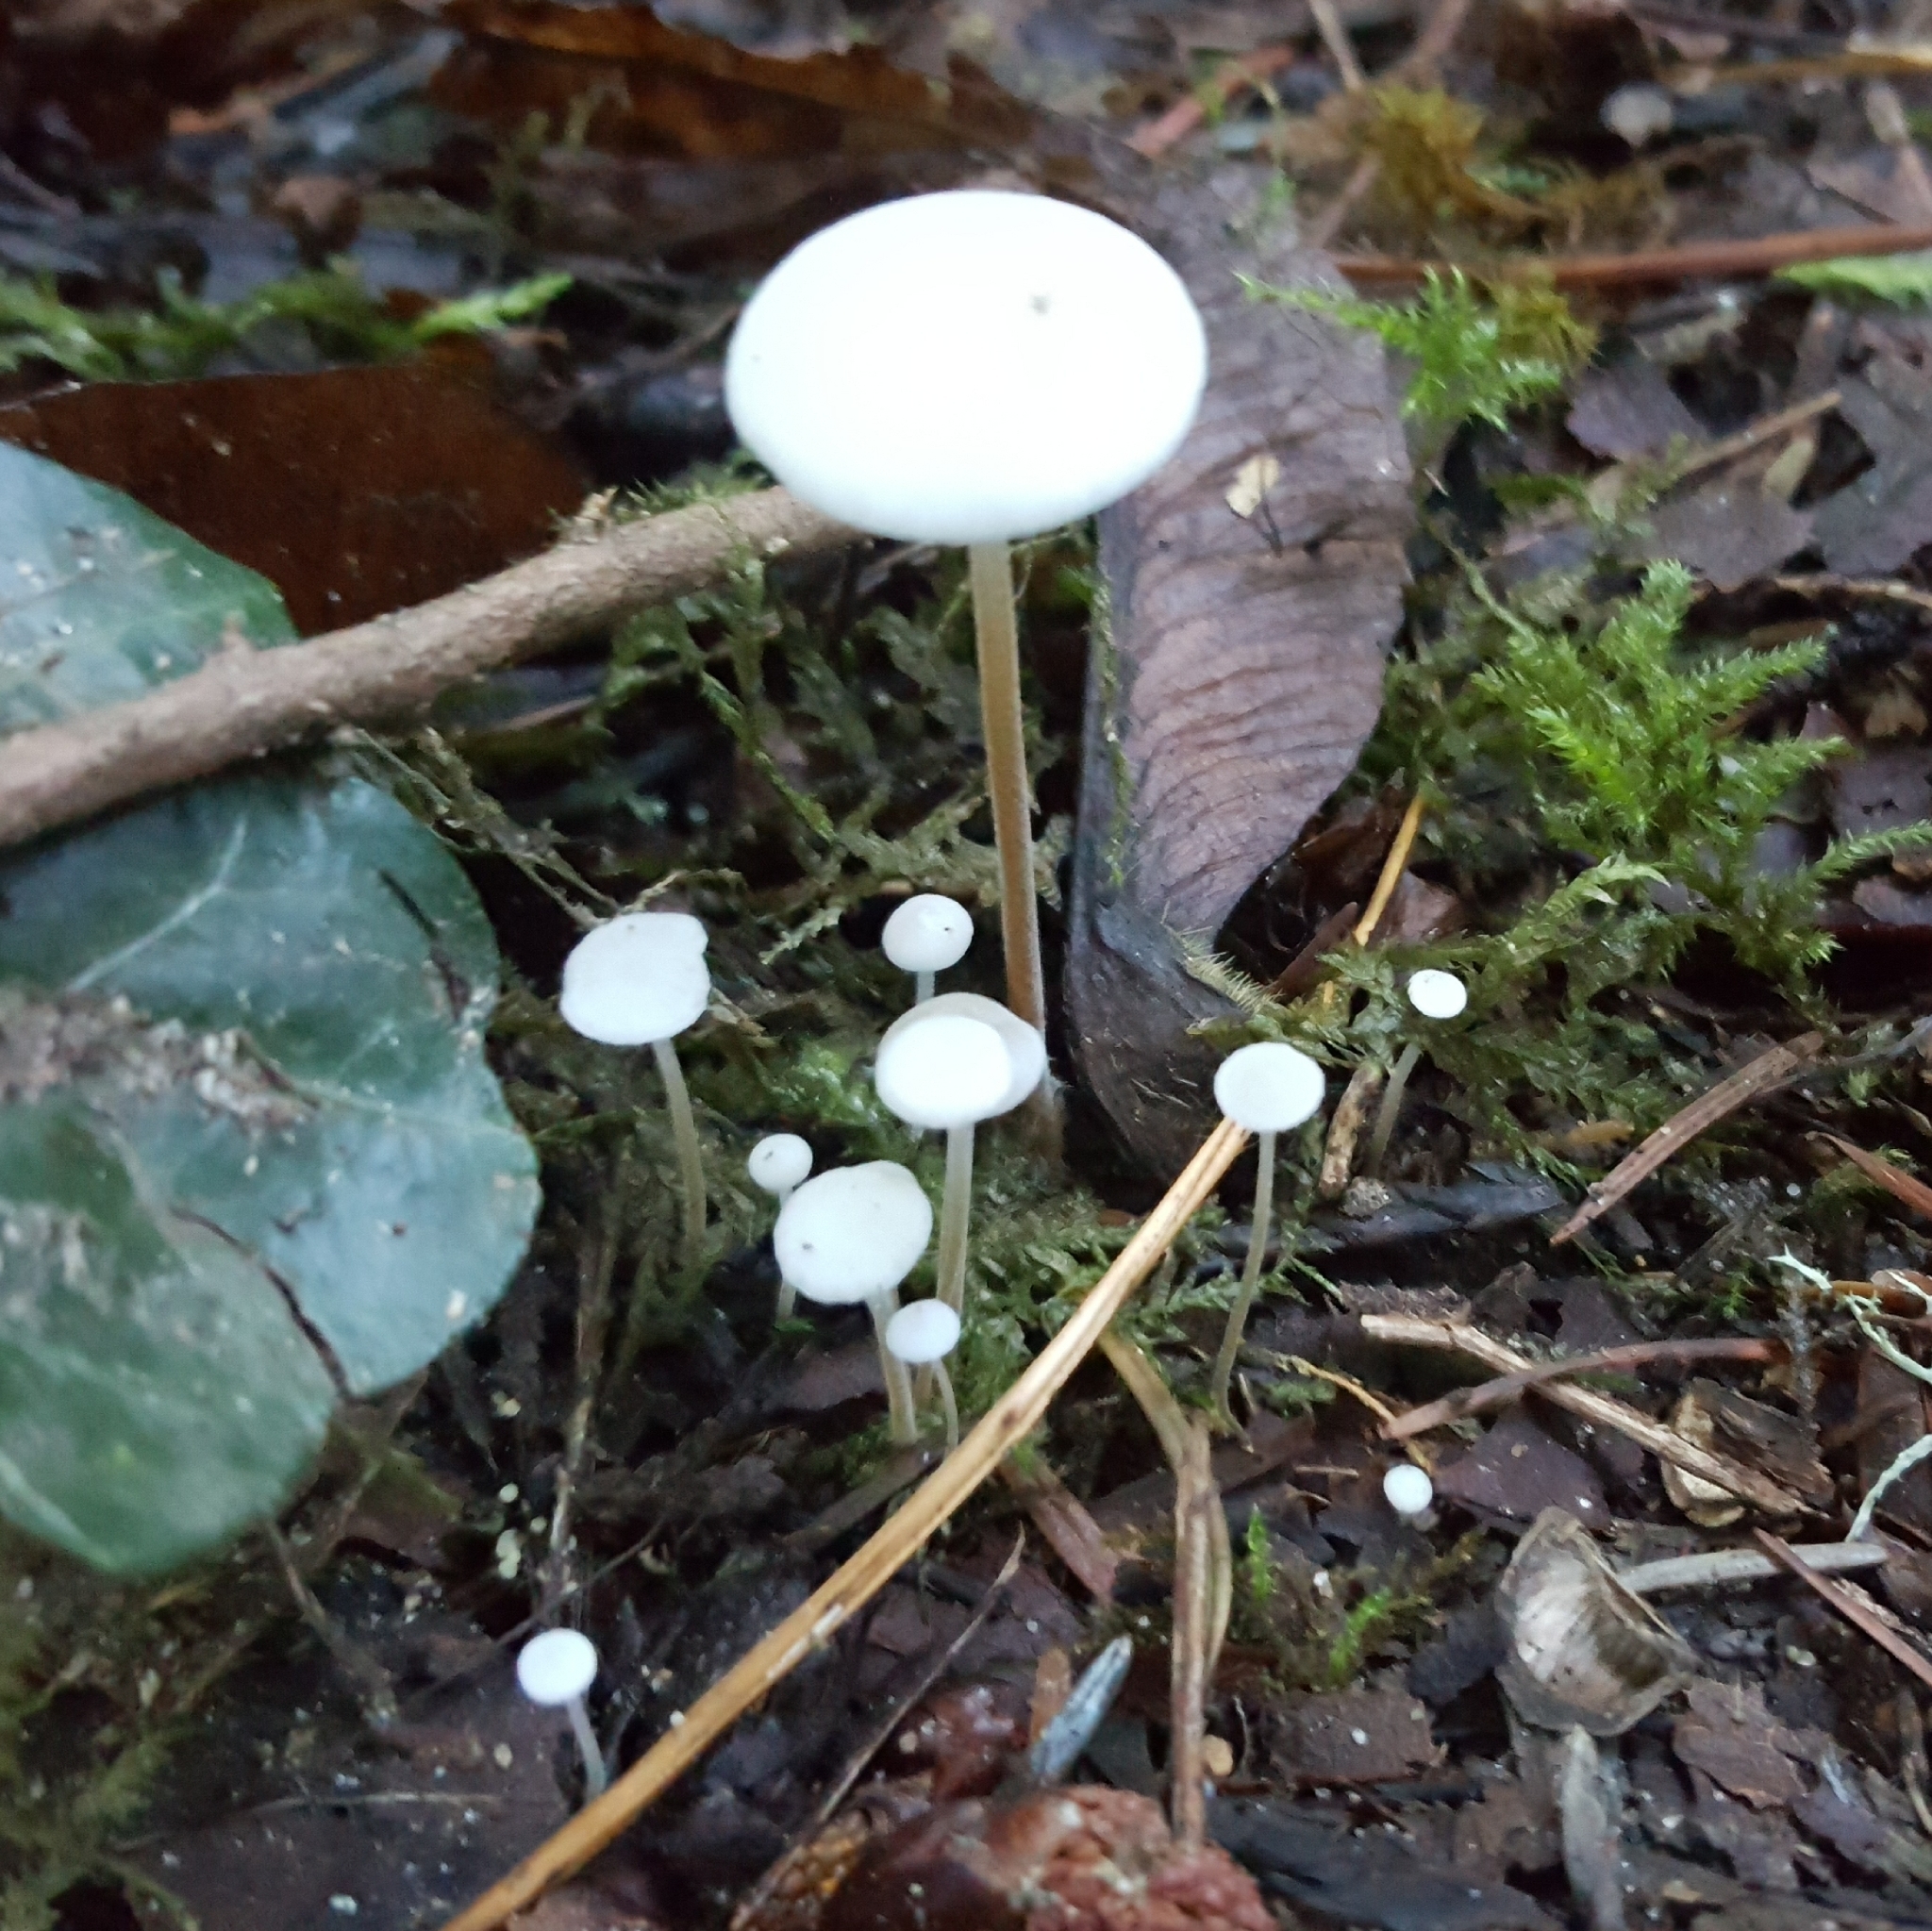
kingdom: Fungi
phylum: Basidiomycota
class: Agaricomycetes
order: Agaricales
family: Physalacriaceae
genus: Strobilurus
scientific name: Strobilurus trullisatus
